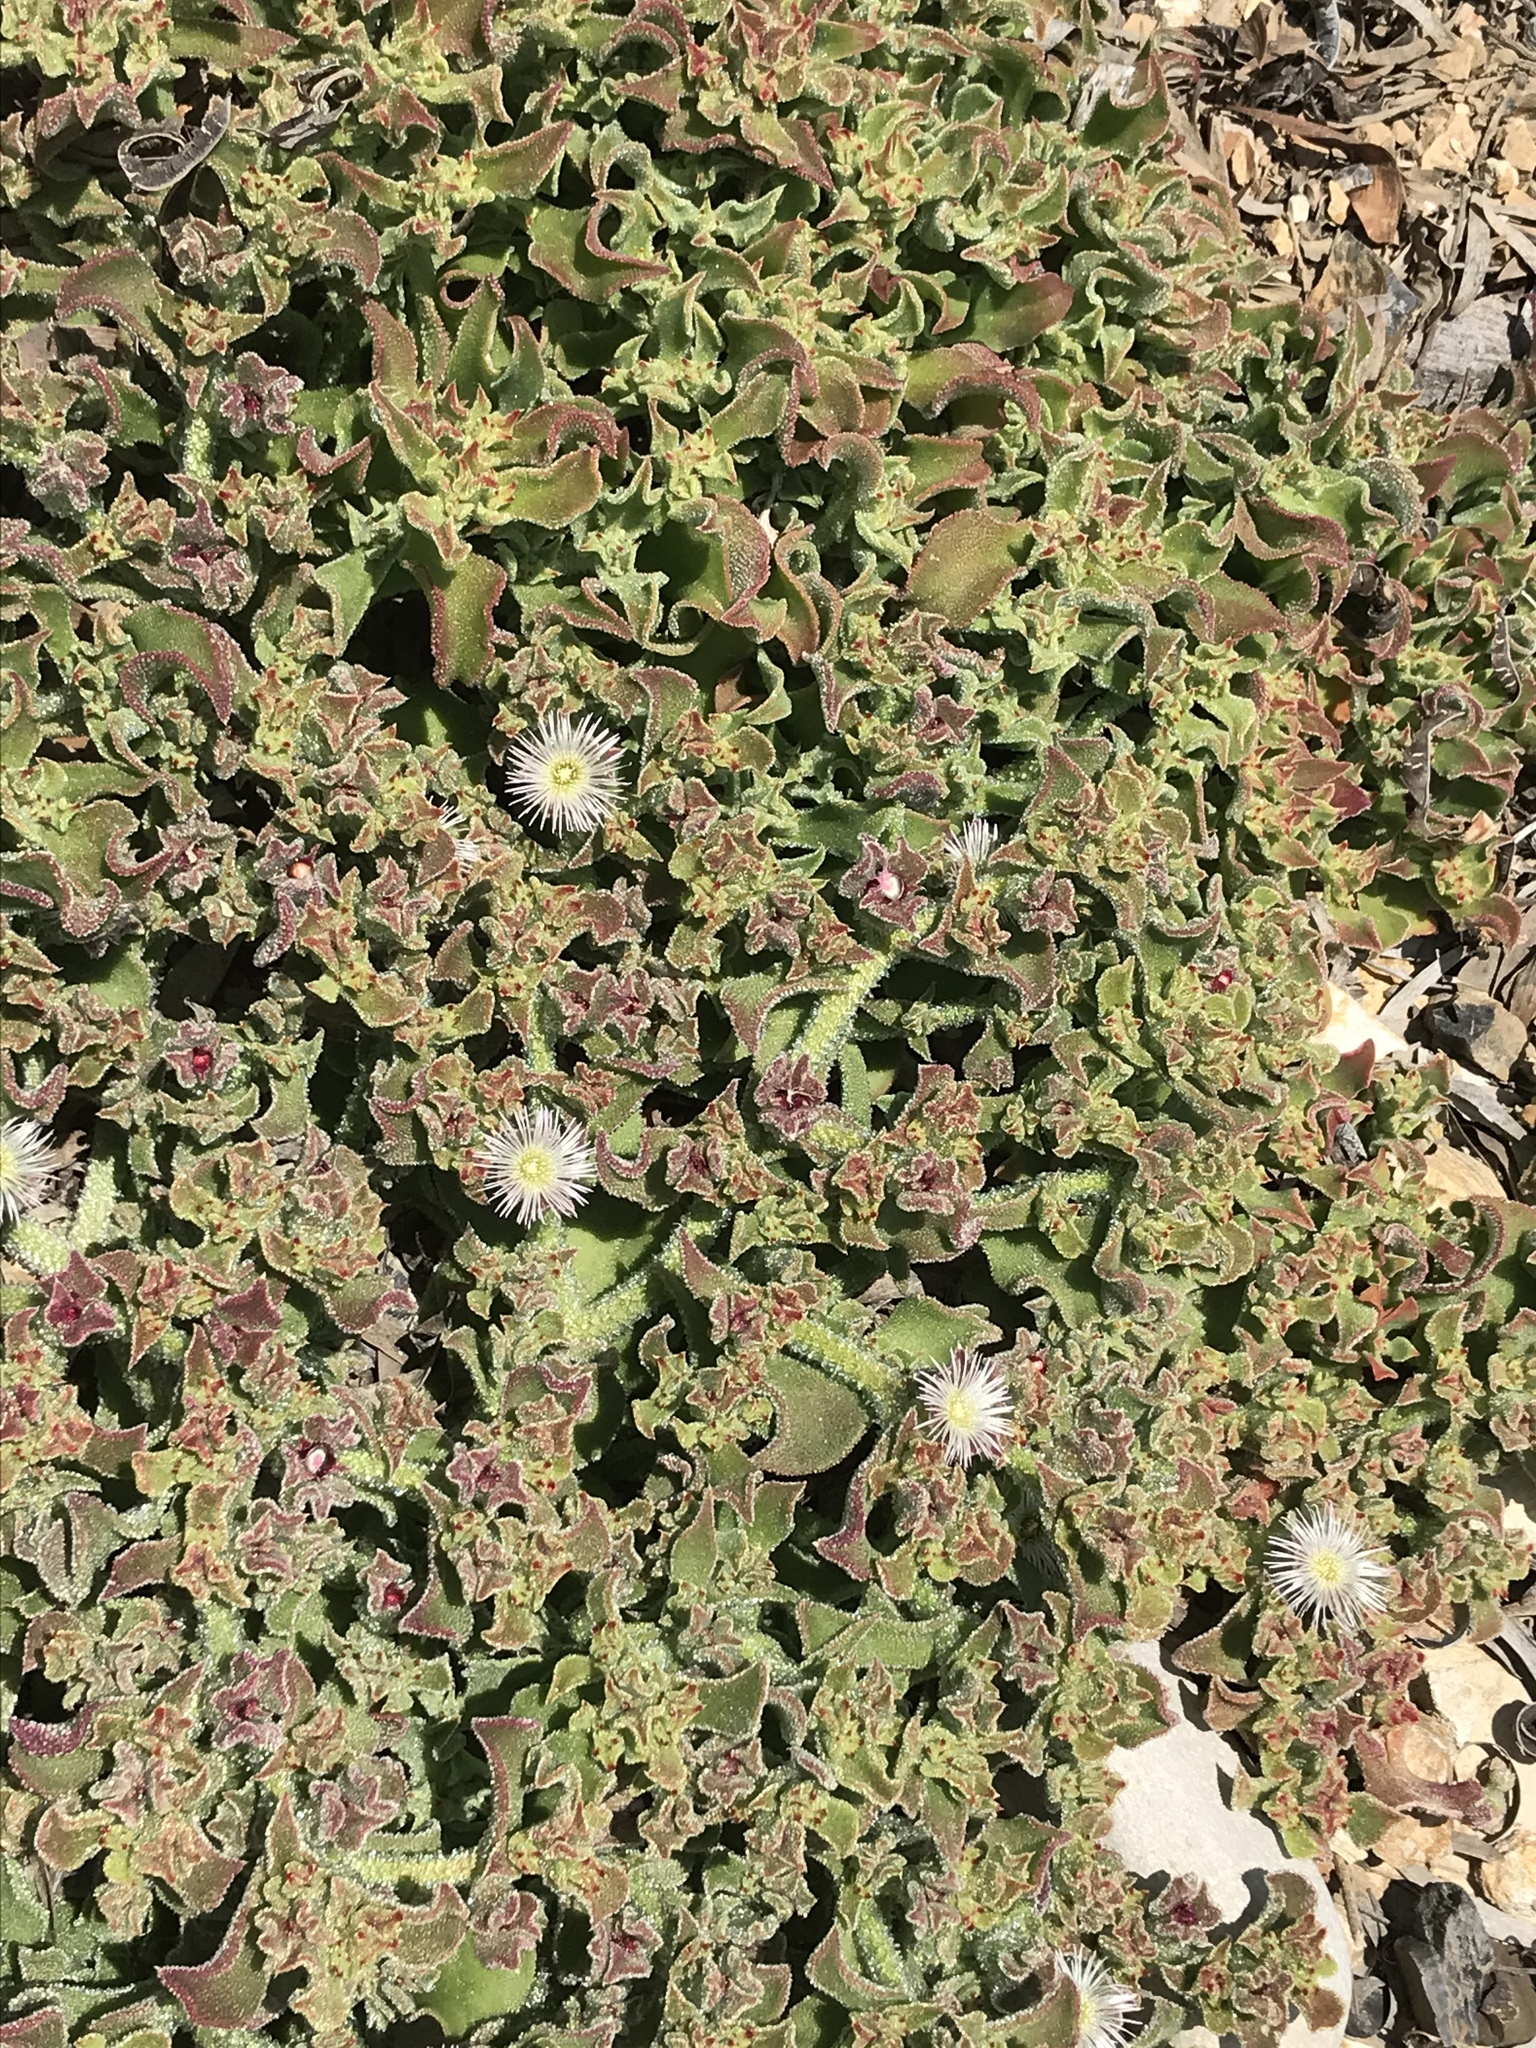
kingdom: Plantae
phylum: Tracheophyta
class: Magnoliopsida
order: Caryophyllales
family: Aizoaceae
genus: Mesembryanthemum
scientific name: Mesembryanthemum crystallinum
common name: Common iceplant
